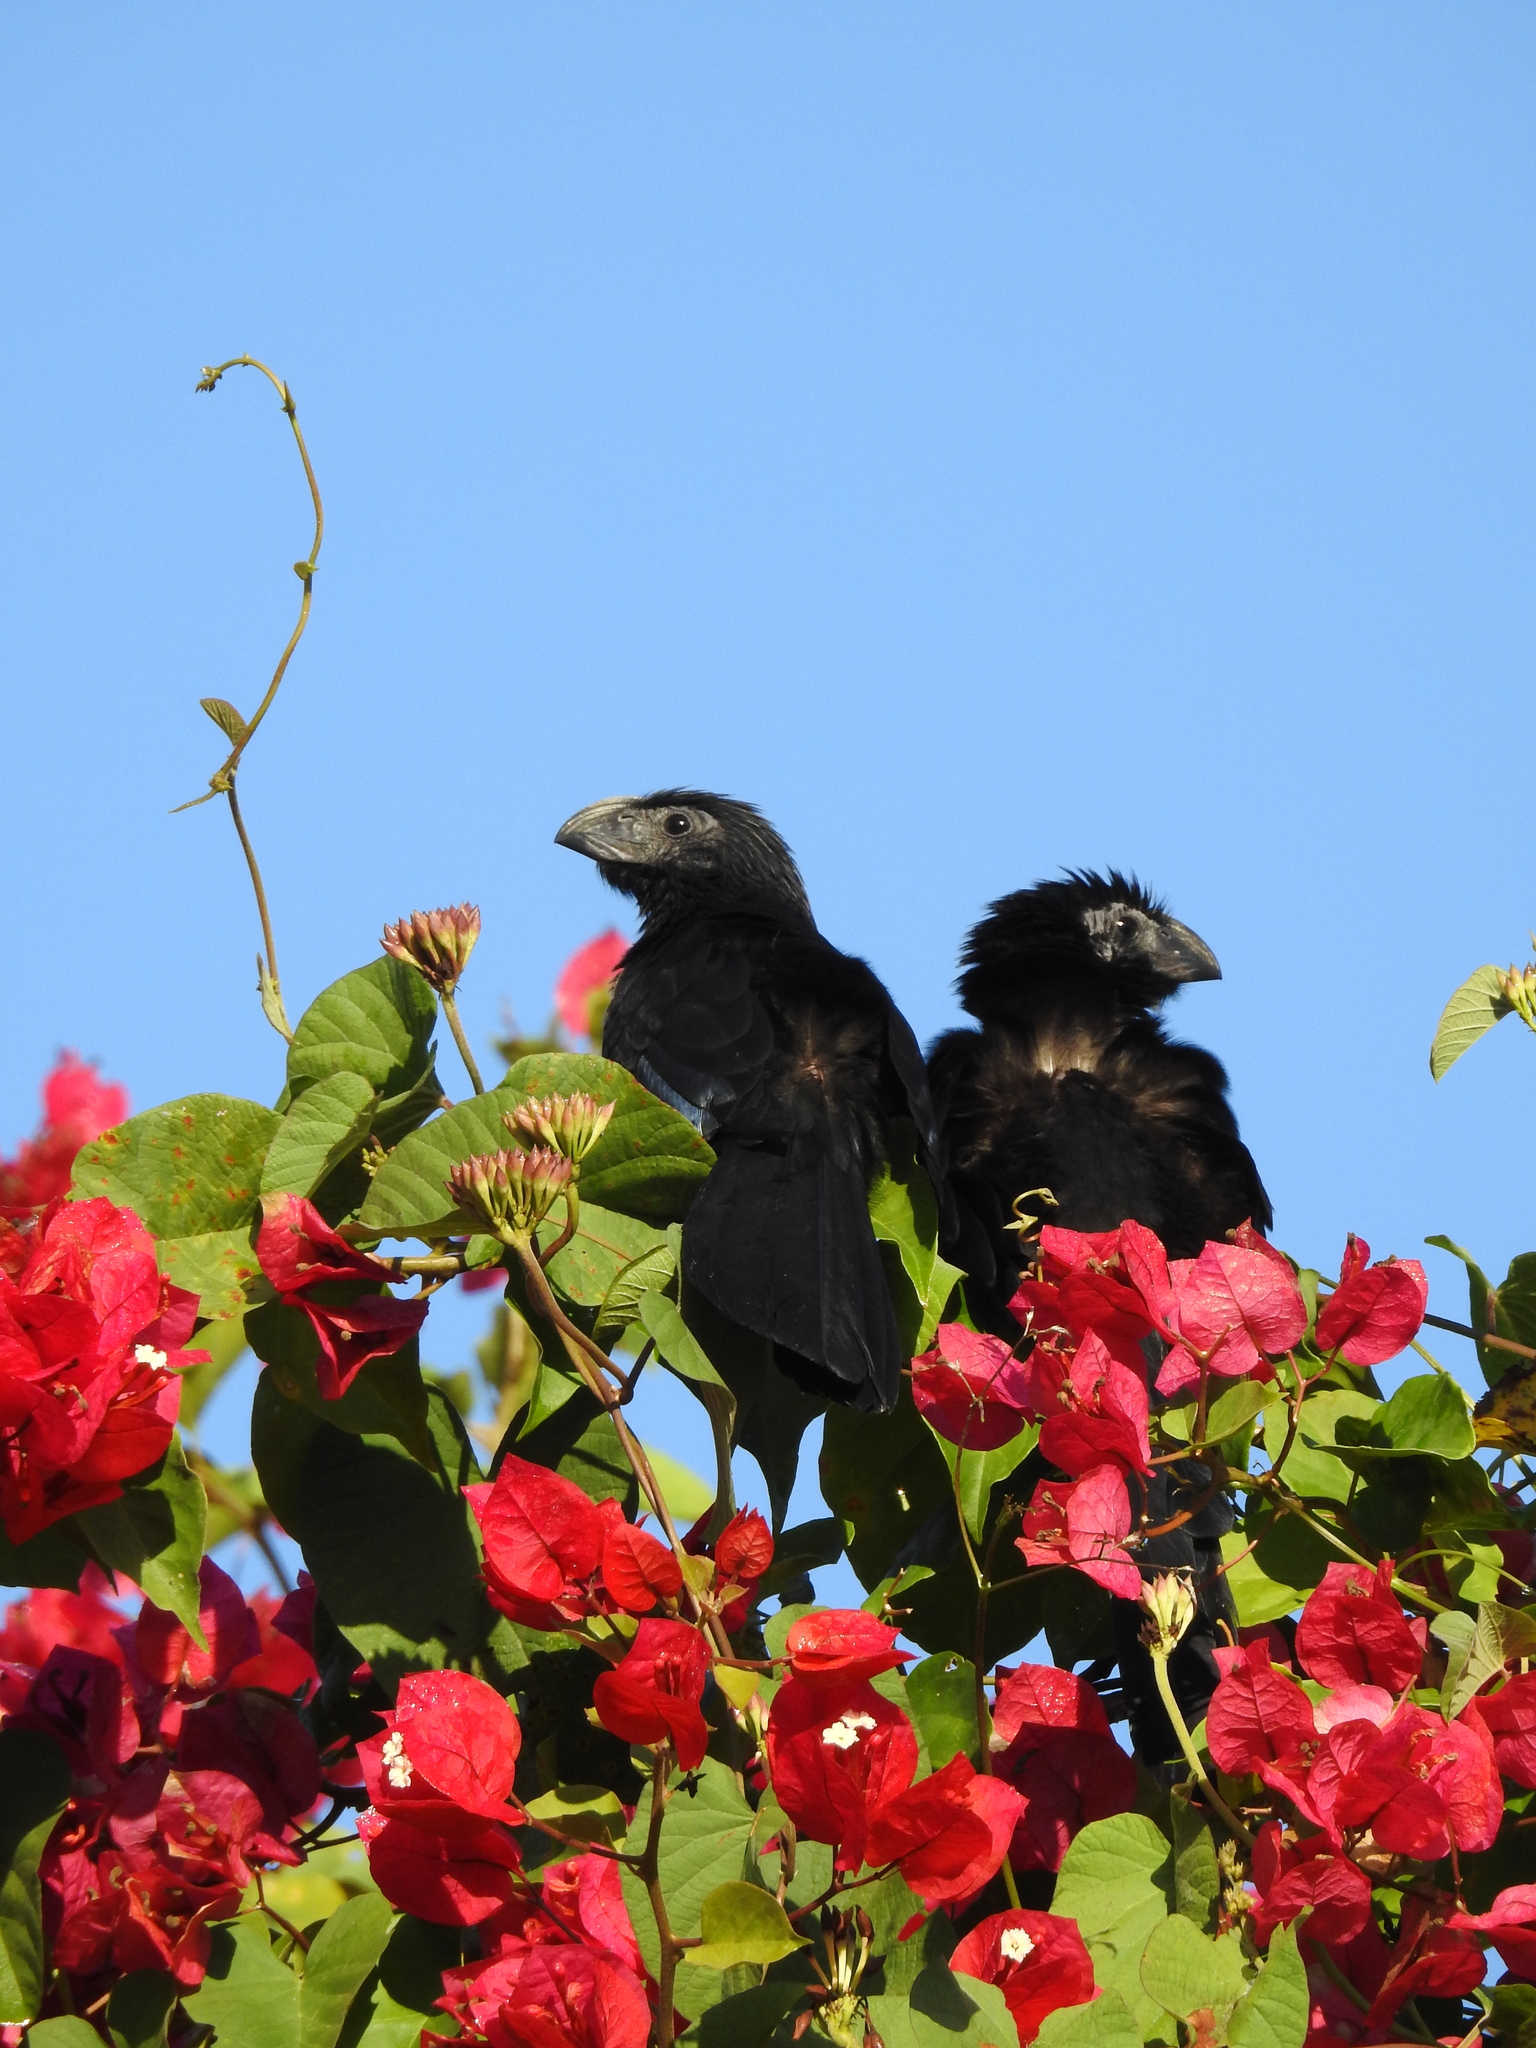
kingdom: Animalia
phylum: Chordata
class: Aves
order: Cuculiformes
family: Cuculidae
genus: Crotophaga
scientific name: Crotophaga sulcirostris
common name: Groove-billed ani
